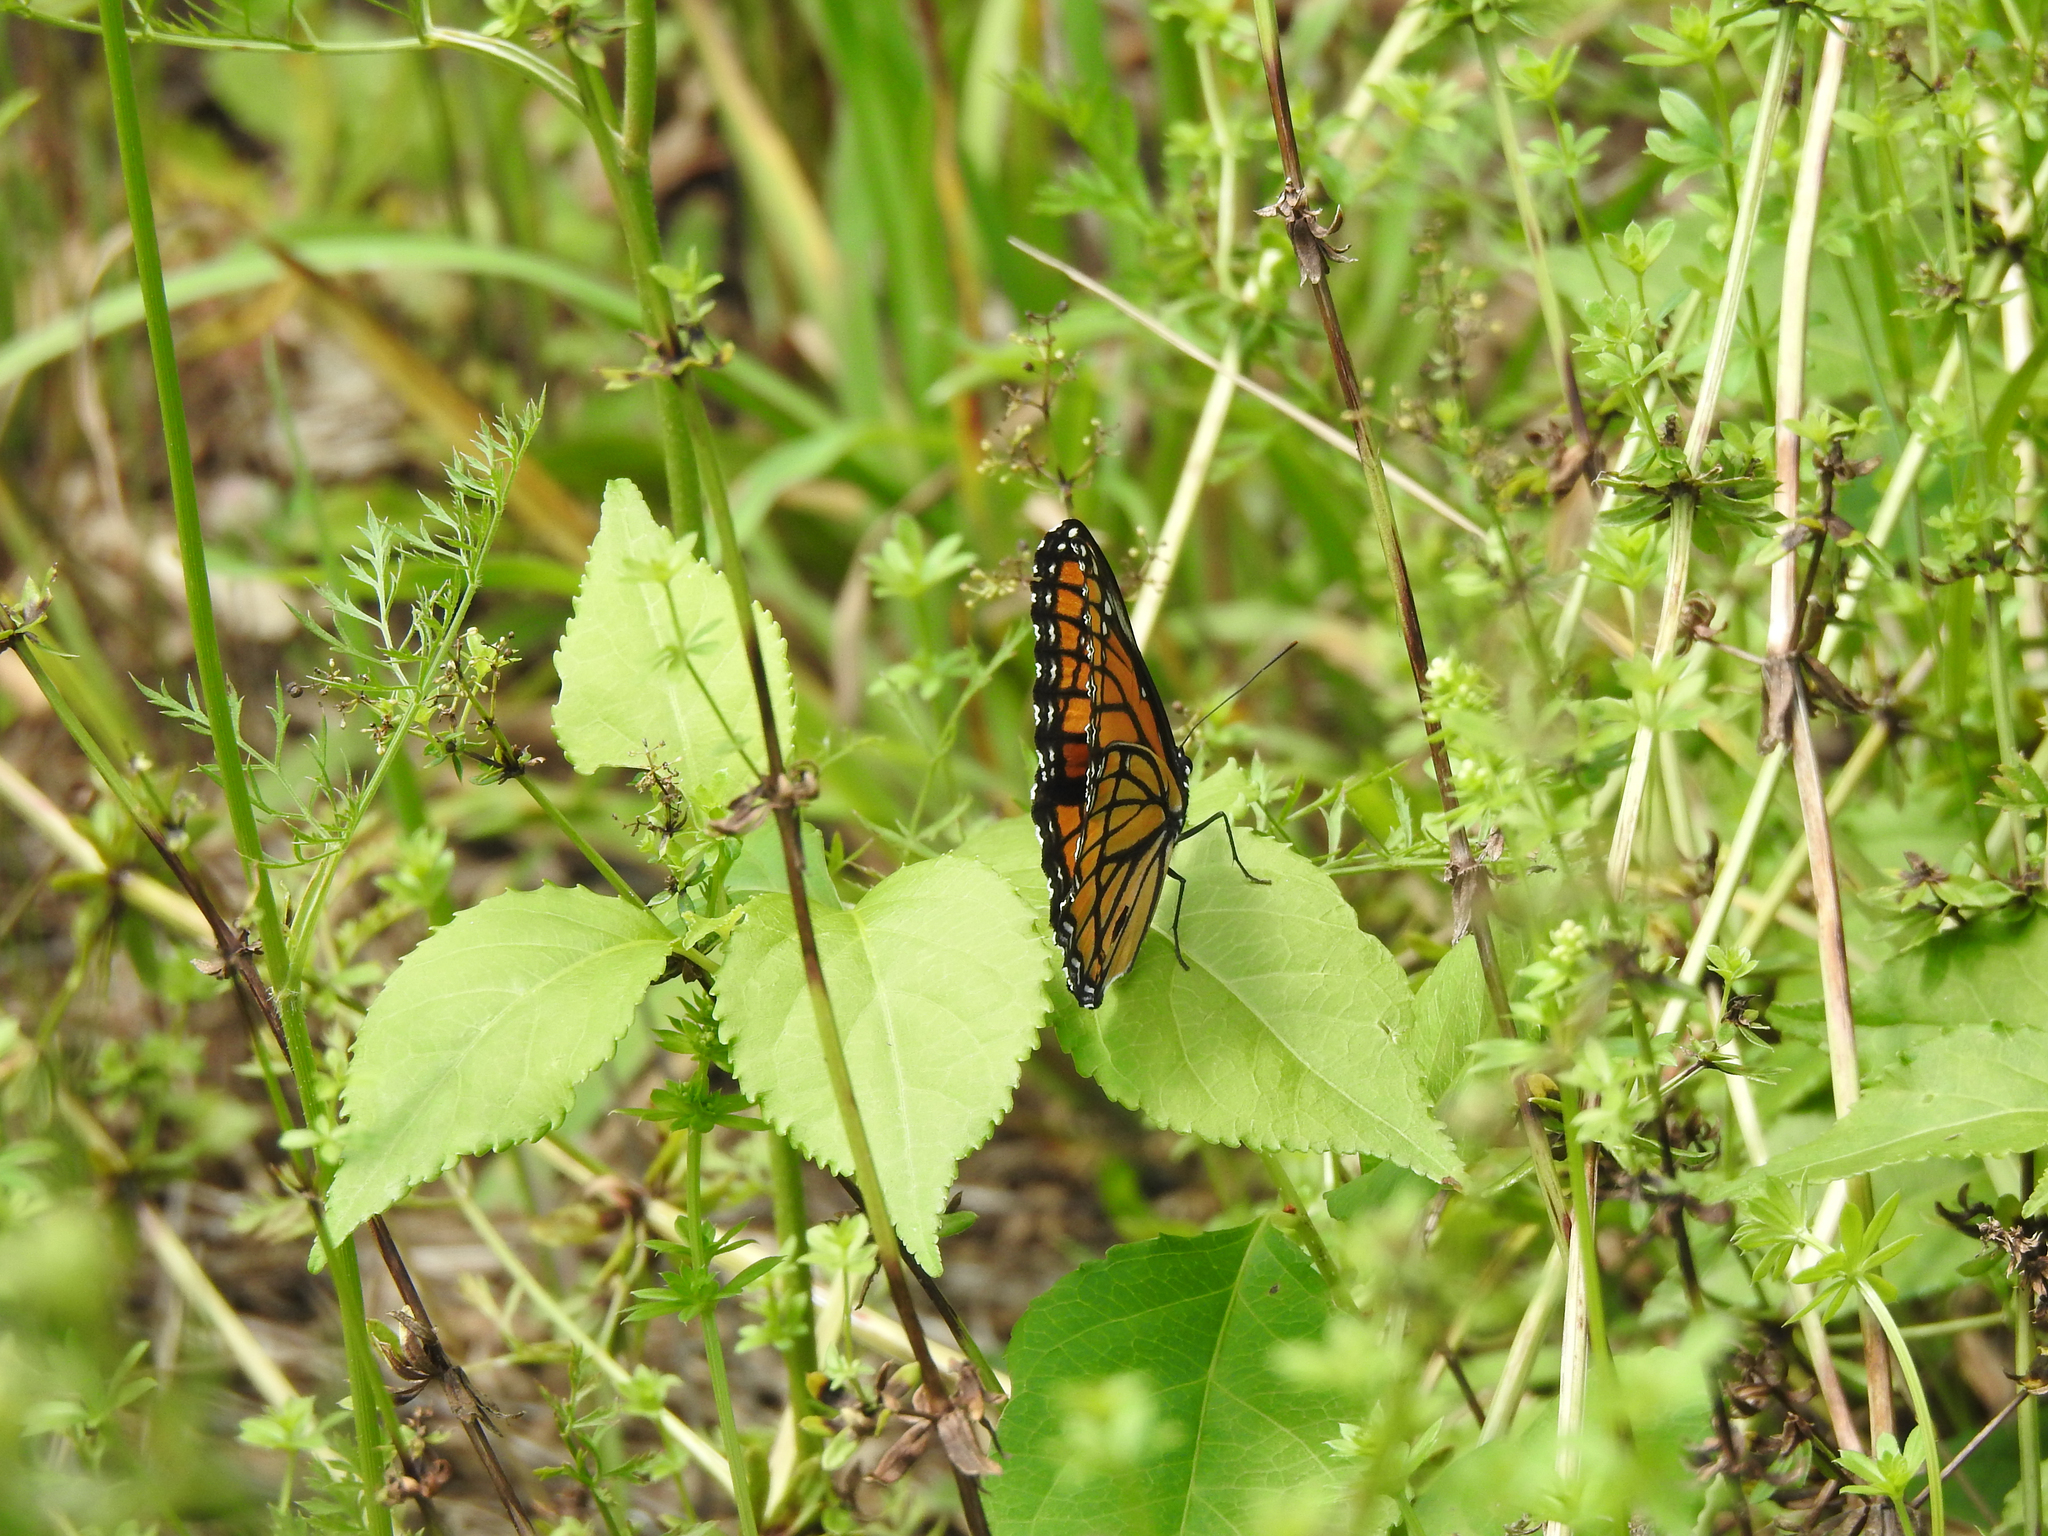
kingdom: Animalia
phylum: Arthropoda
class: Insecta
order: Lepidoptera
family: Nymphalidae
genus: Limenitis
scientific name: Limenitis archippus
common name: Viceroy
